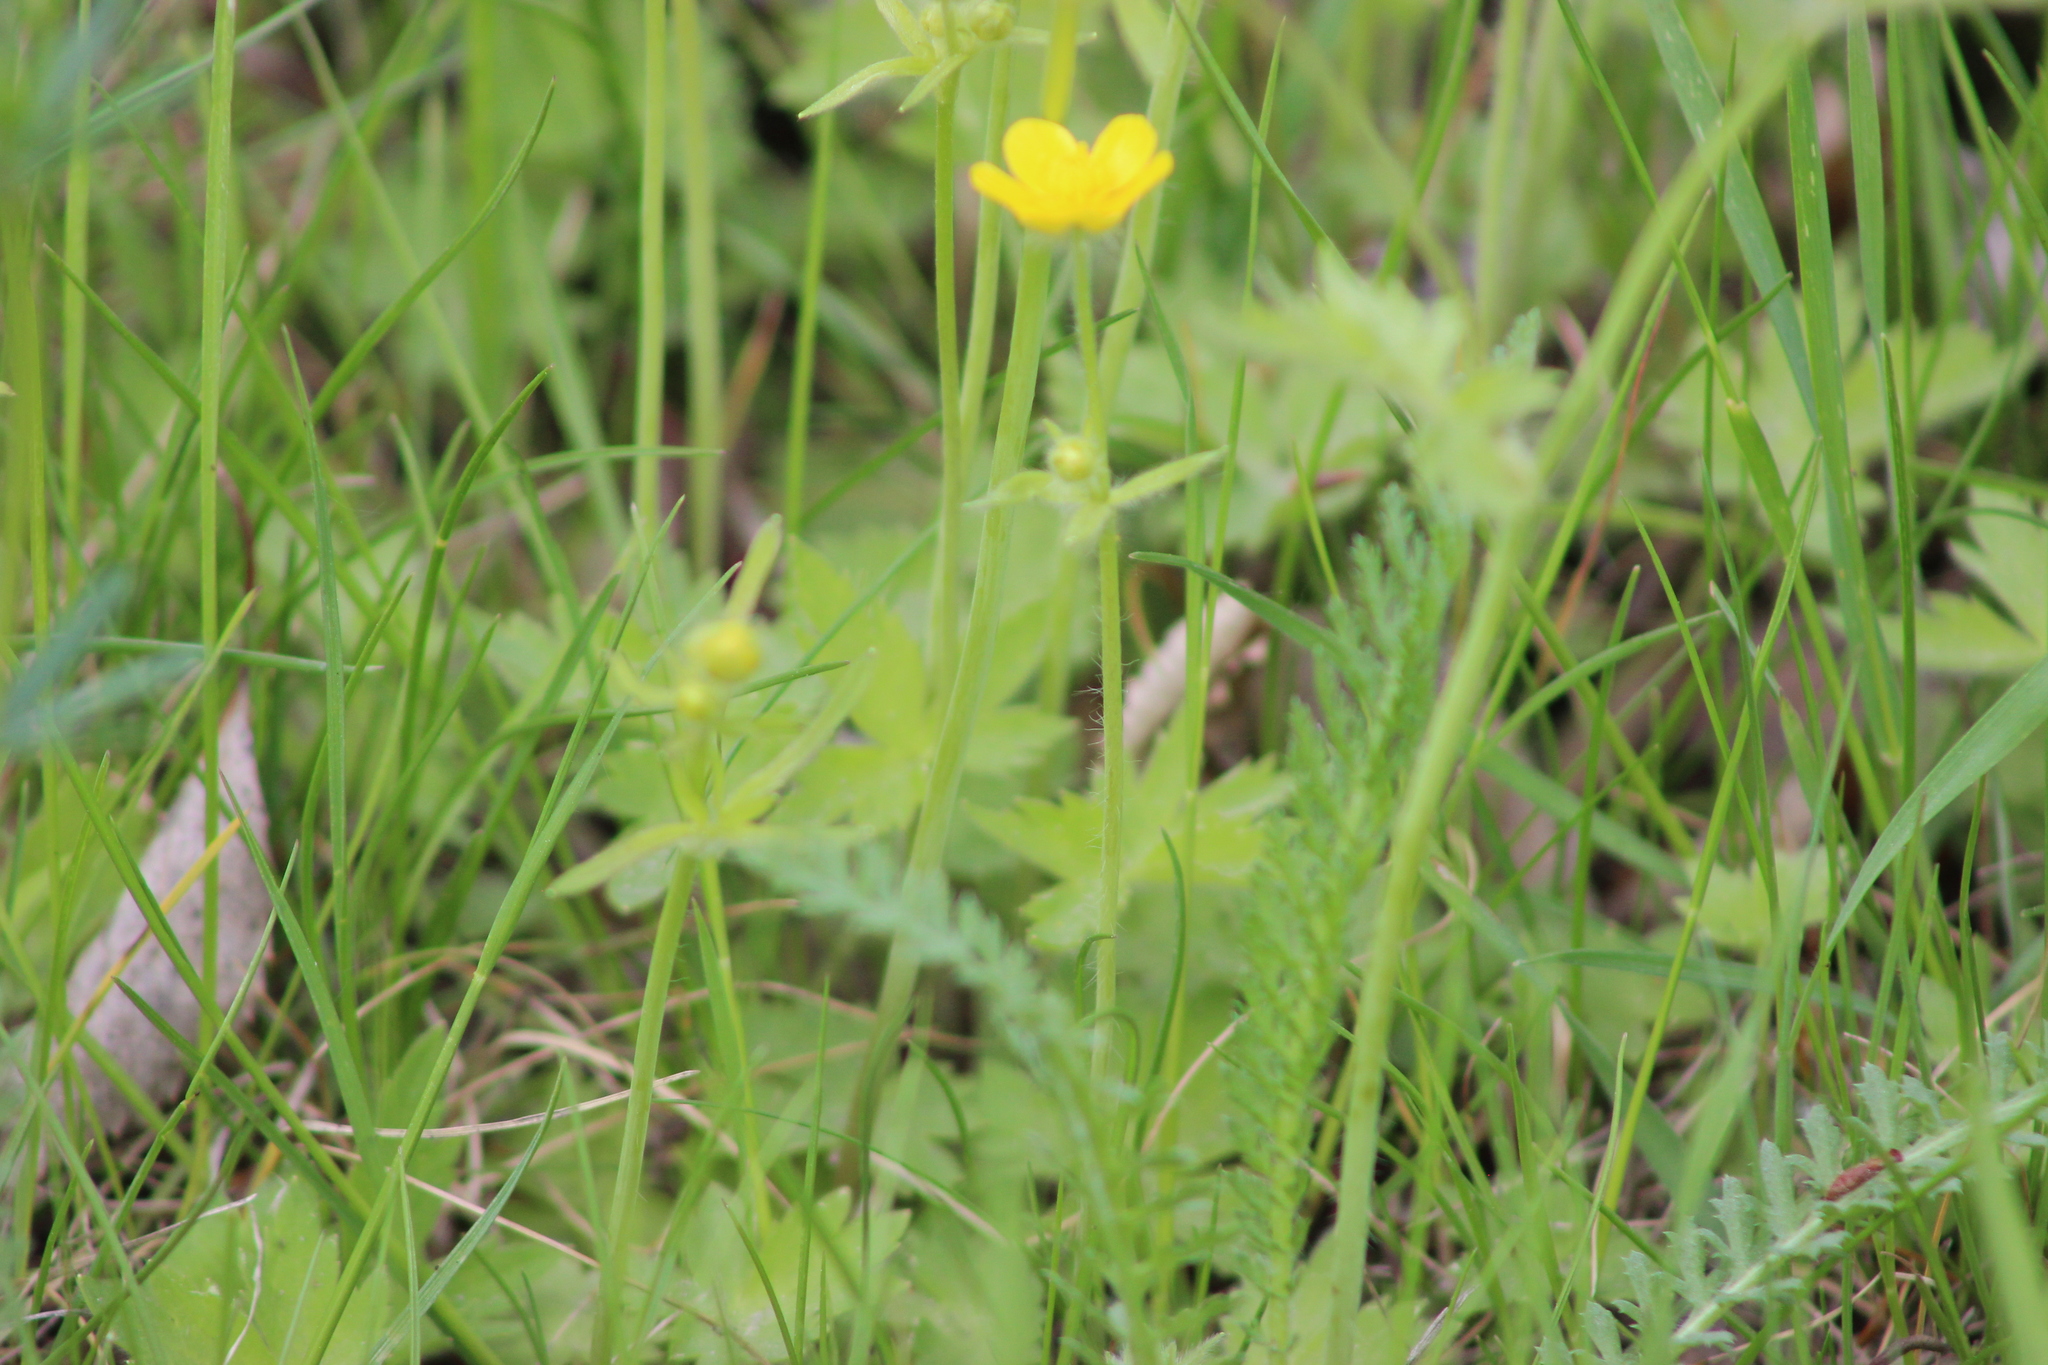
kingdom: Plantae
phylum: Tracheophyta
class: Magnoliopsida
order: Ranunculales
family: Ranunculaceae
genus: Ranunculus
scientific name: Ranunculus propinquus
